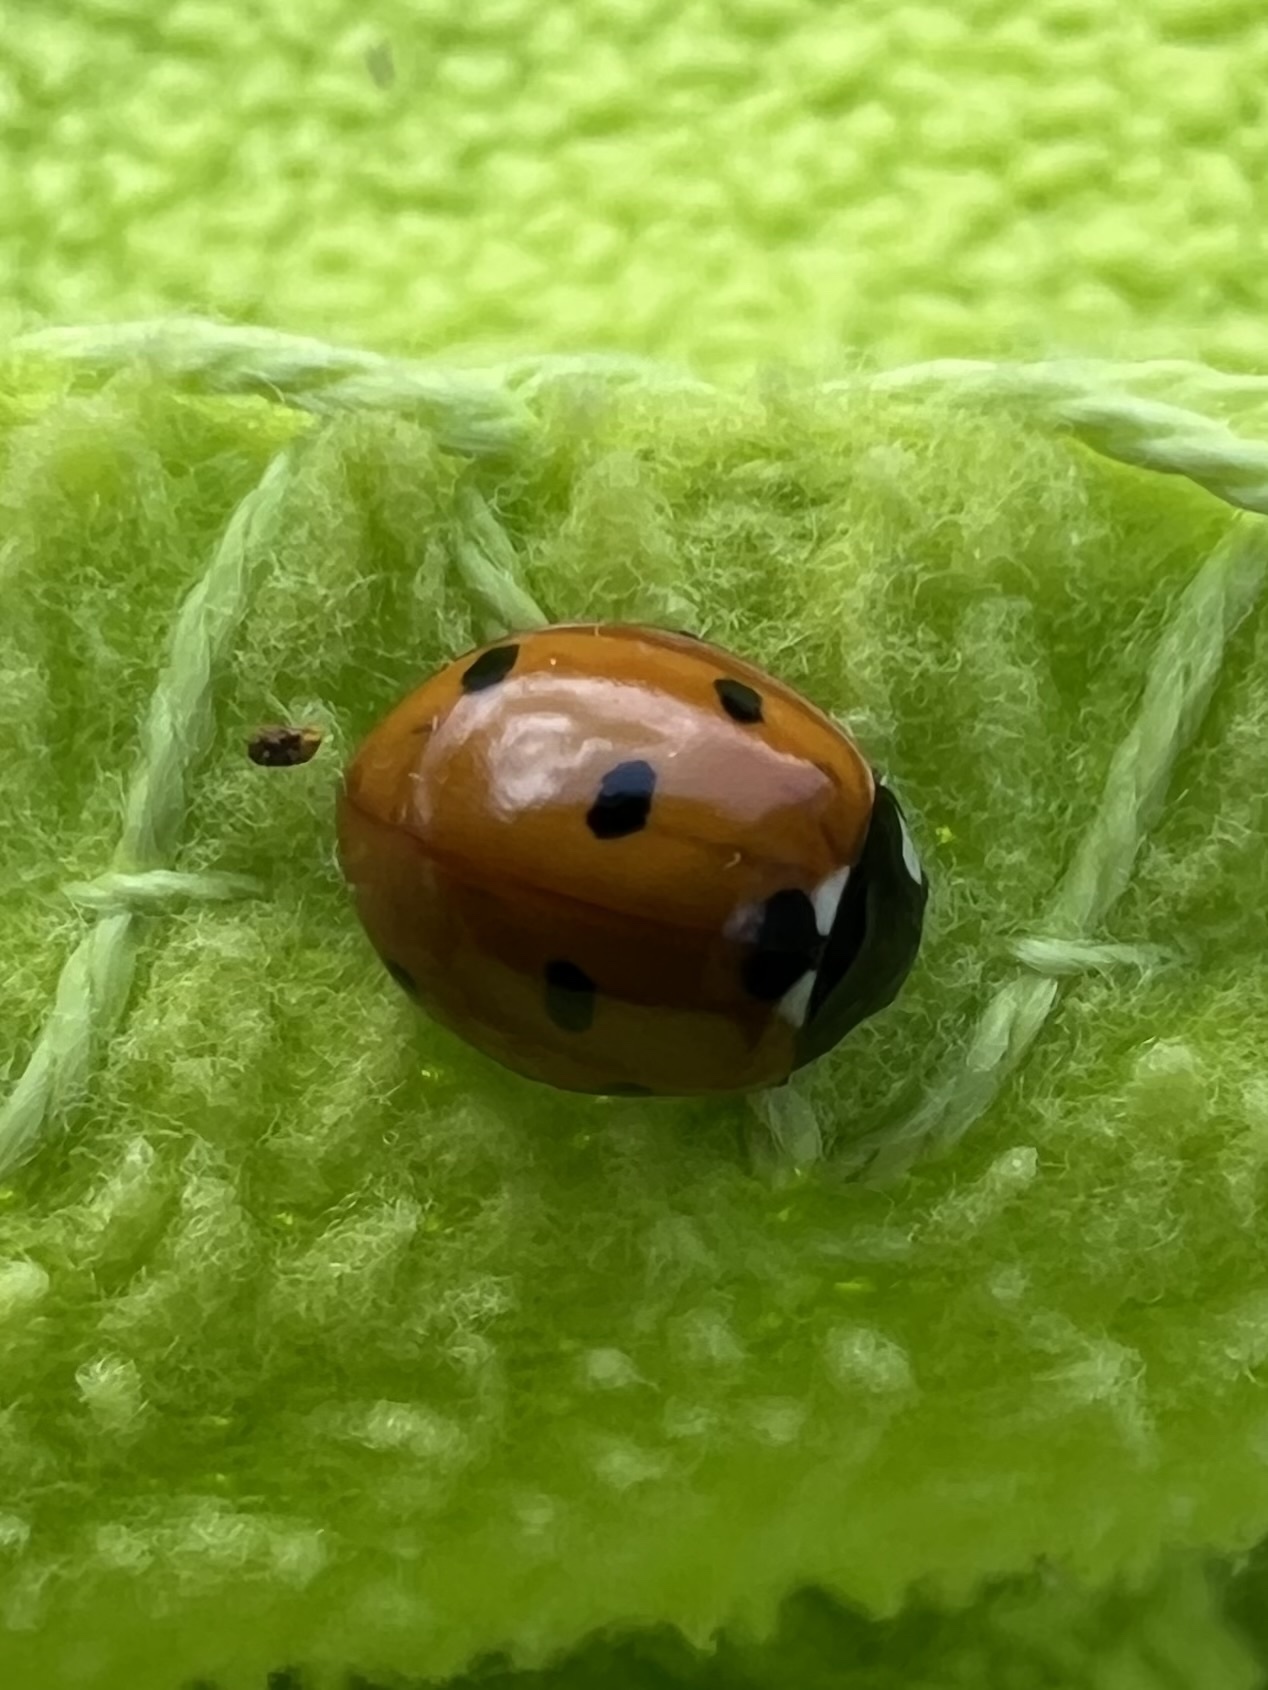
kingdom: Animalia
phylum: Arthropoda
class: Insecta
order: Coleoptera
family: Coccinellidae
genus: Coccinella
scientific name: Coccinella septempunctata
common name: Sevenspotted lady beetle
